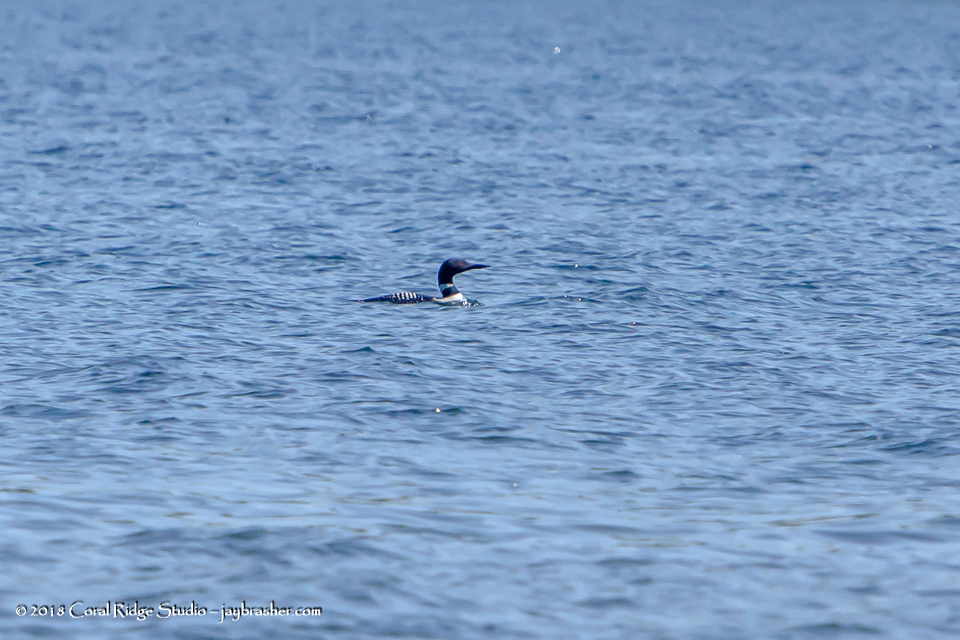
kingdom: Animalia
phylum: Chordata
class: Aves
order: Gaviiformes
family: Gaviidae
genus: Gavia
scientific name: Gavia immer
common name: Common loon
